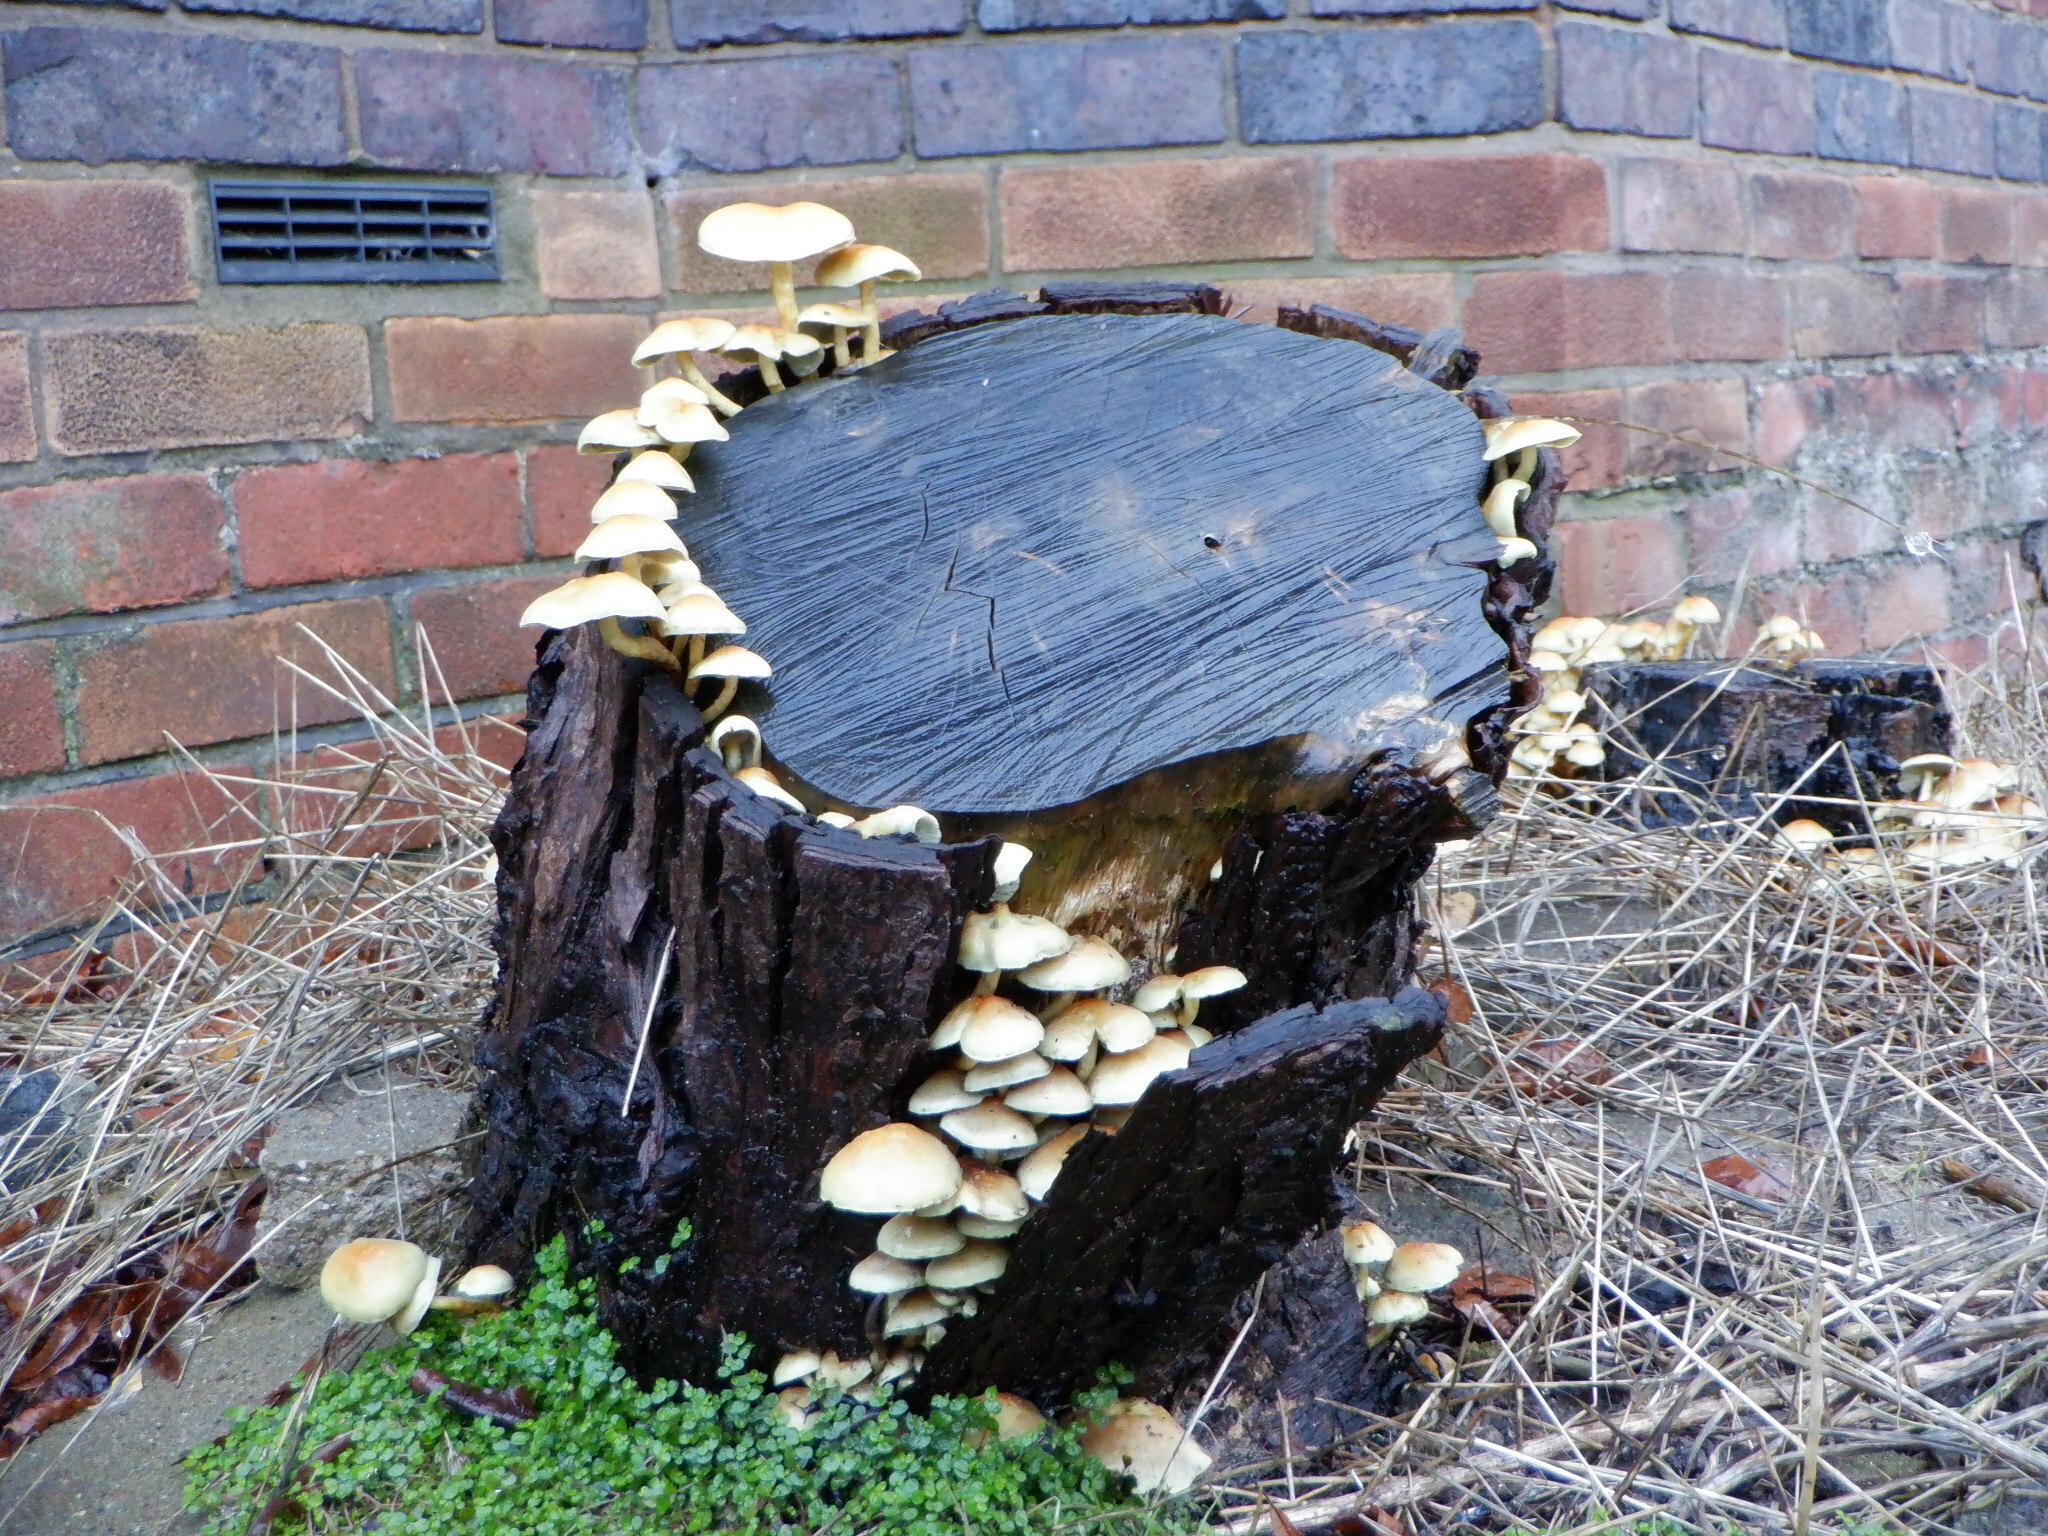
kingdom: Fungi
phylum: Basidiomycota
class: Agaricomycetes
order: Agaricales
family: Strophariaceae
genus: Hypholoma
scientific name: Hypholoma fasciculare
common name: Sulphur tuft
